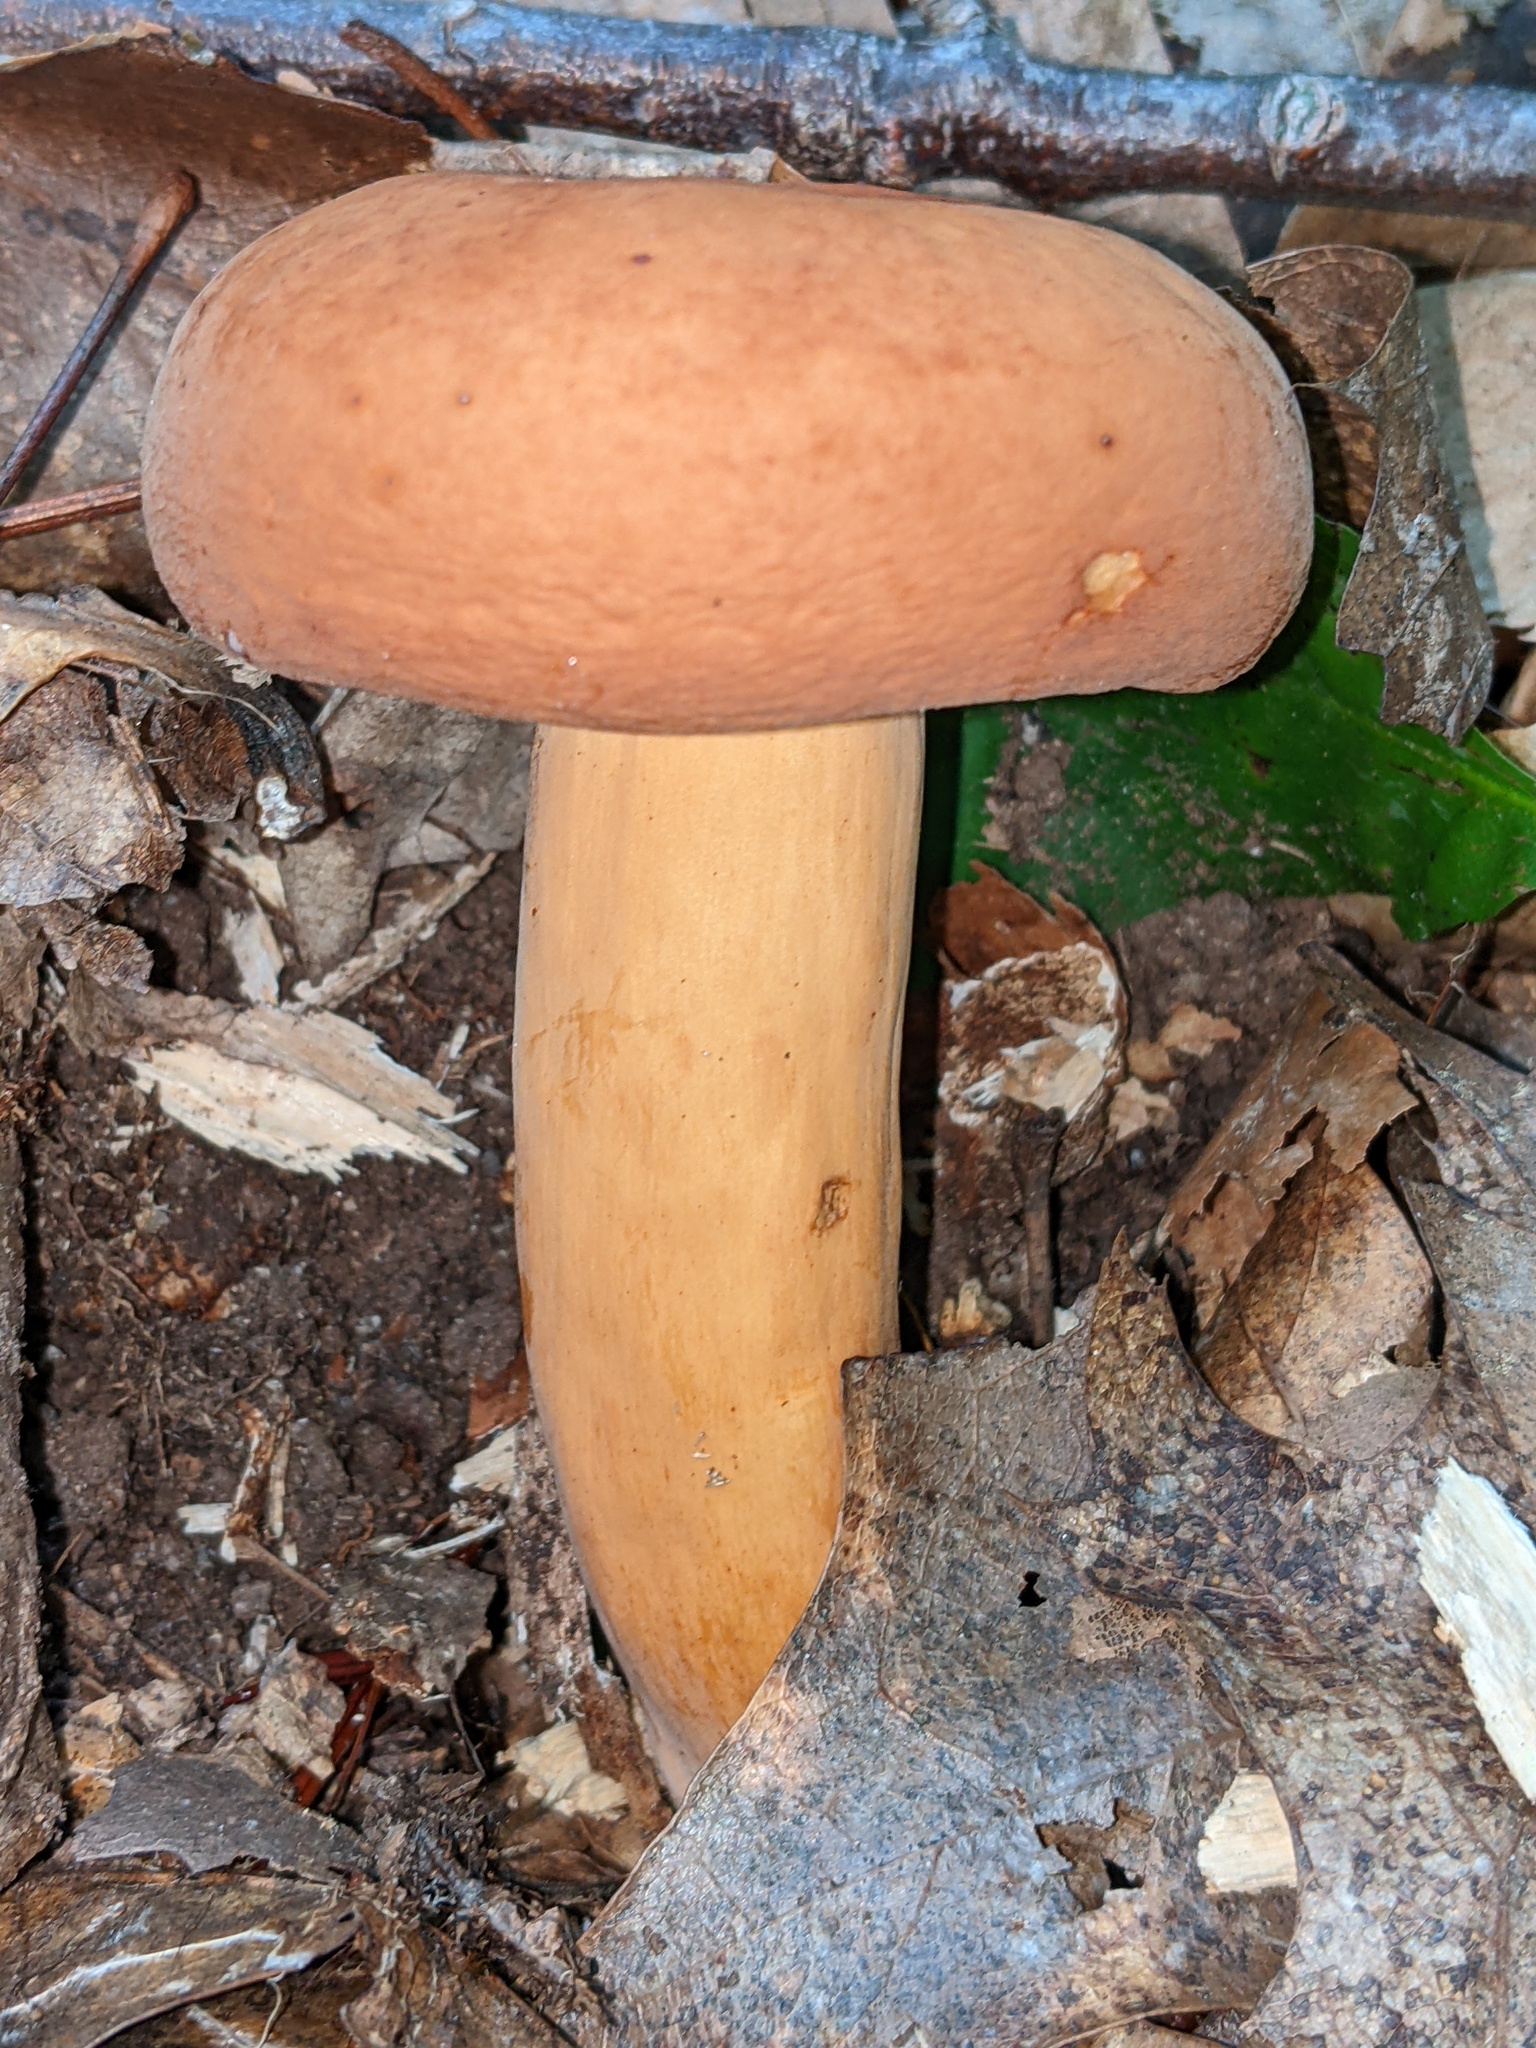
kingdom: Fungi
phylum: Basidiomycota
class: Agaricomycetes
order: Russulales
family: Russulaceae
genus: Lactifluus
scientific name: Lactifluus volemus
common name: Fishy milkcap
